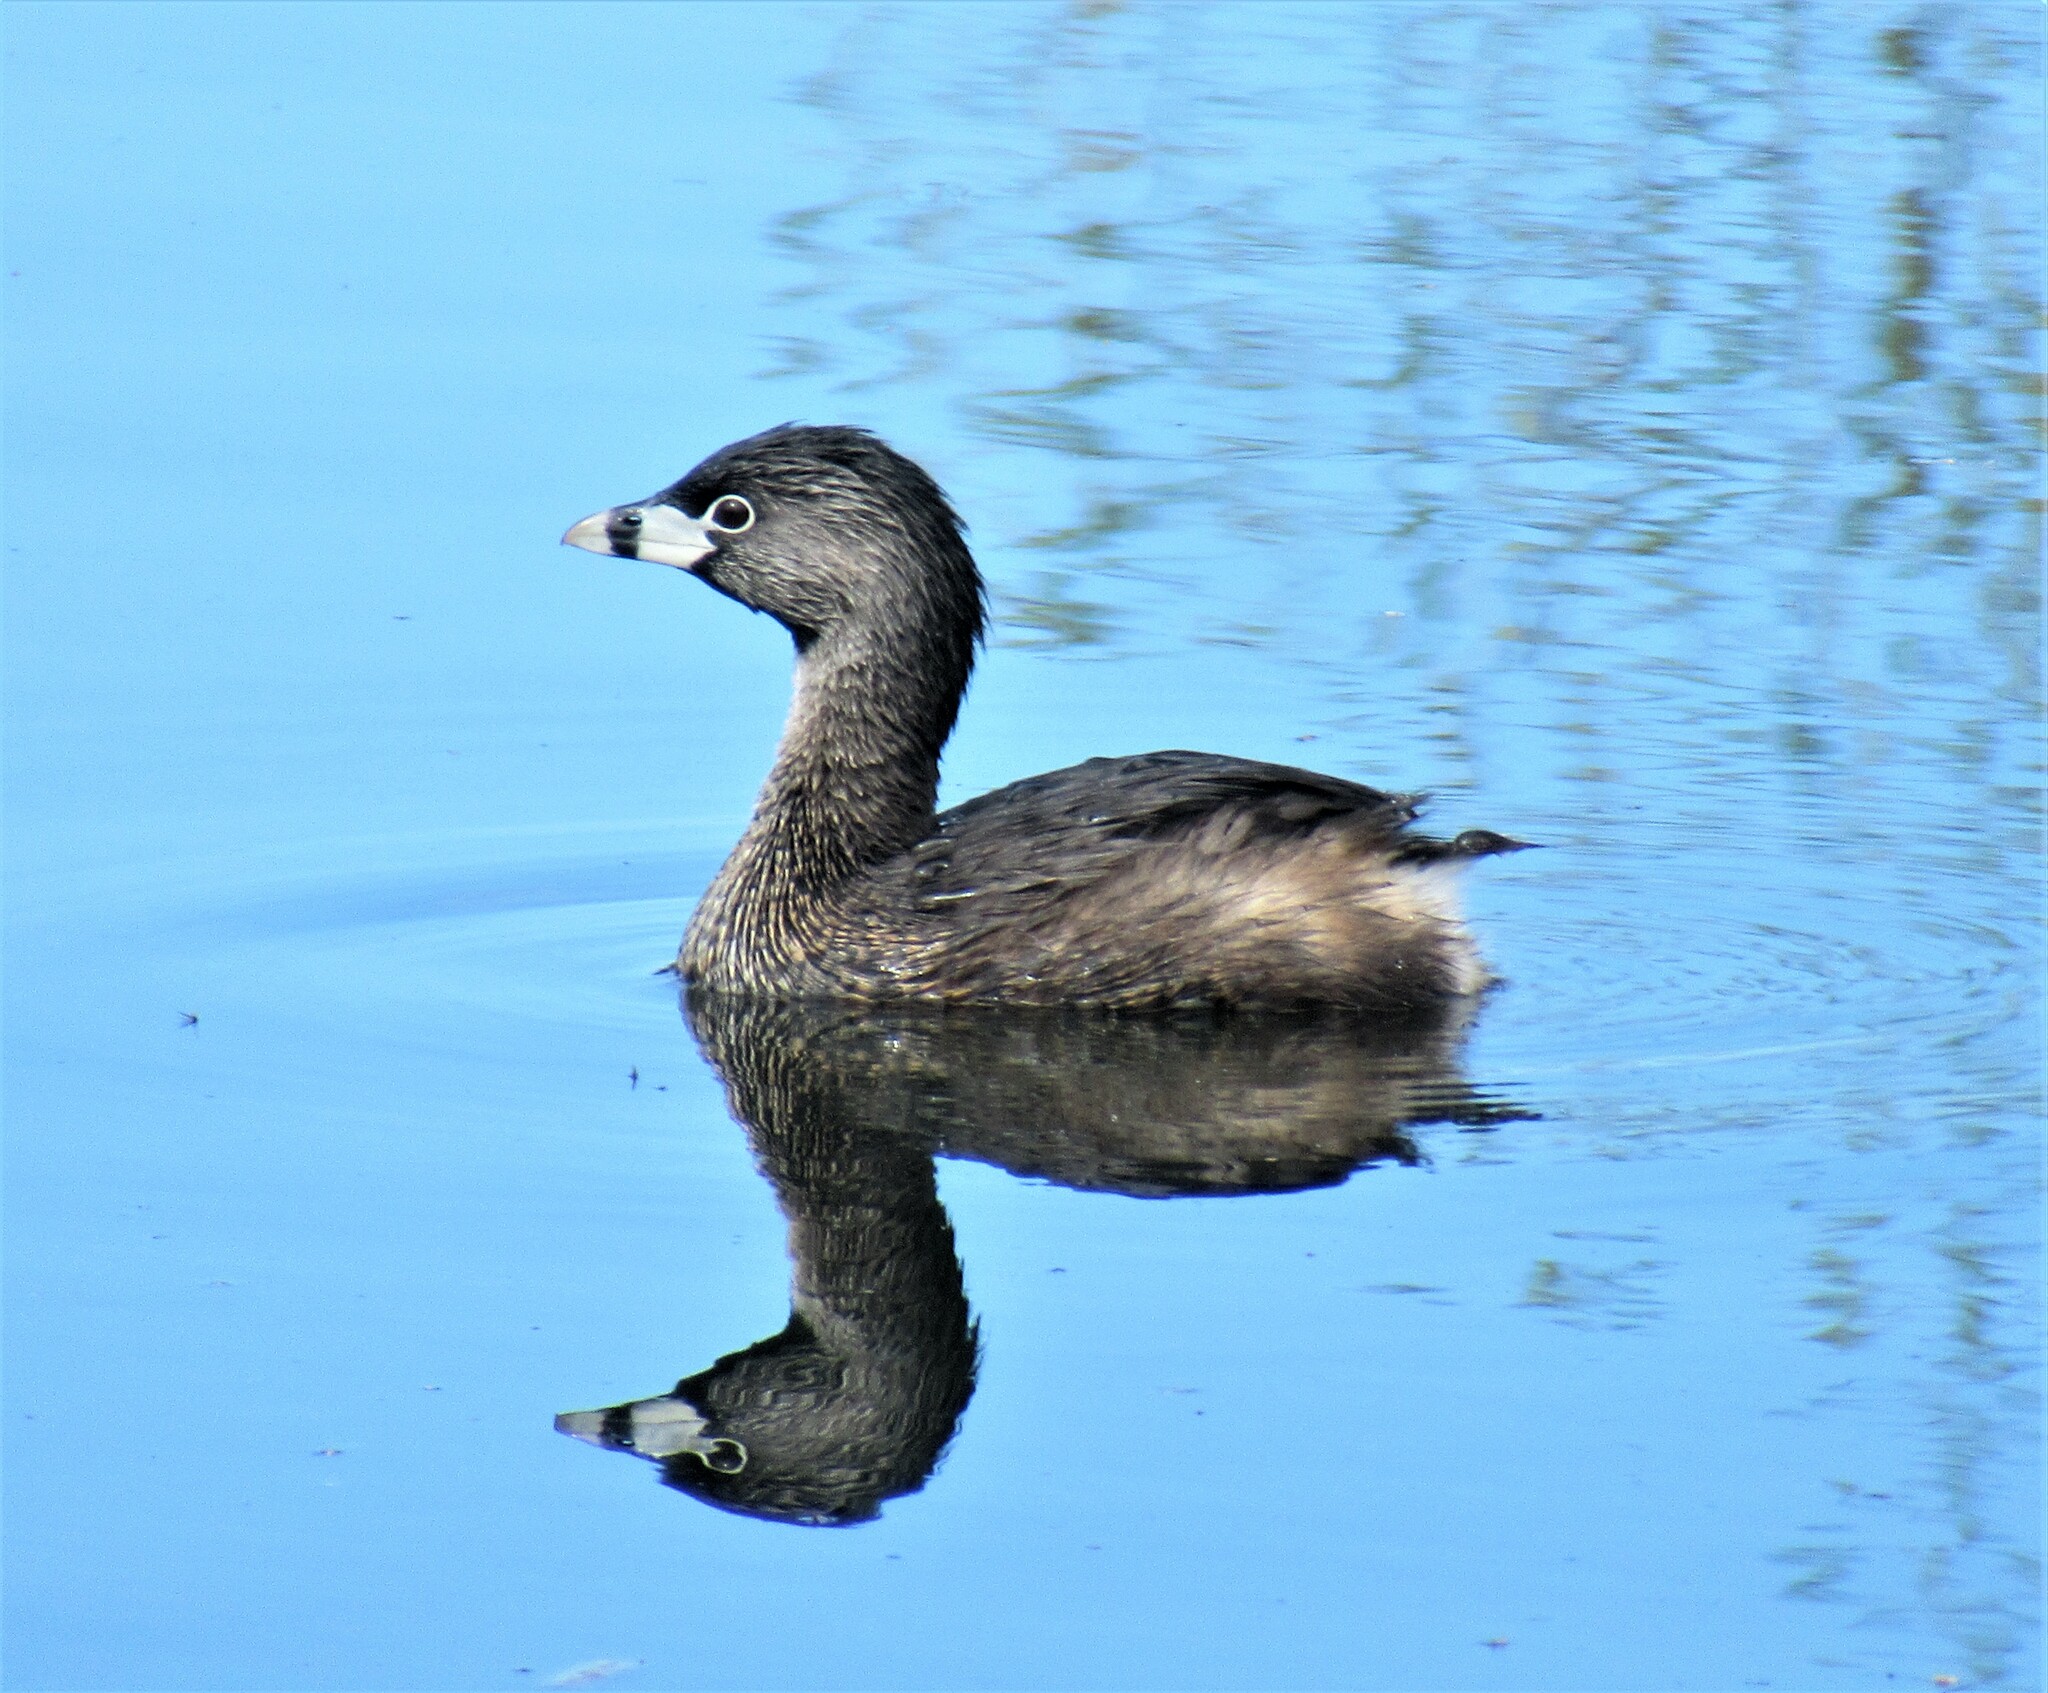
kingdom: Animalia
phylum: Chordata
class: Aves
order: Podicipediformes
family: Podicipedidae
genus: Podilymbus
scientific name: Podilymbus podiceps
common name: Pied-billed grebe
